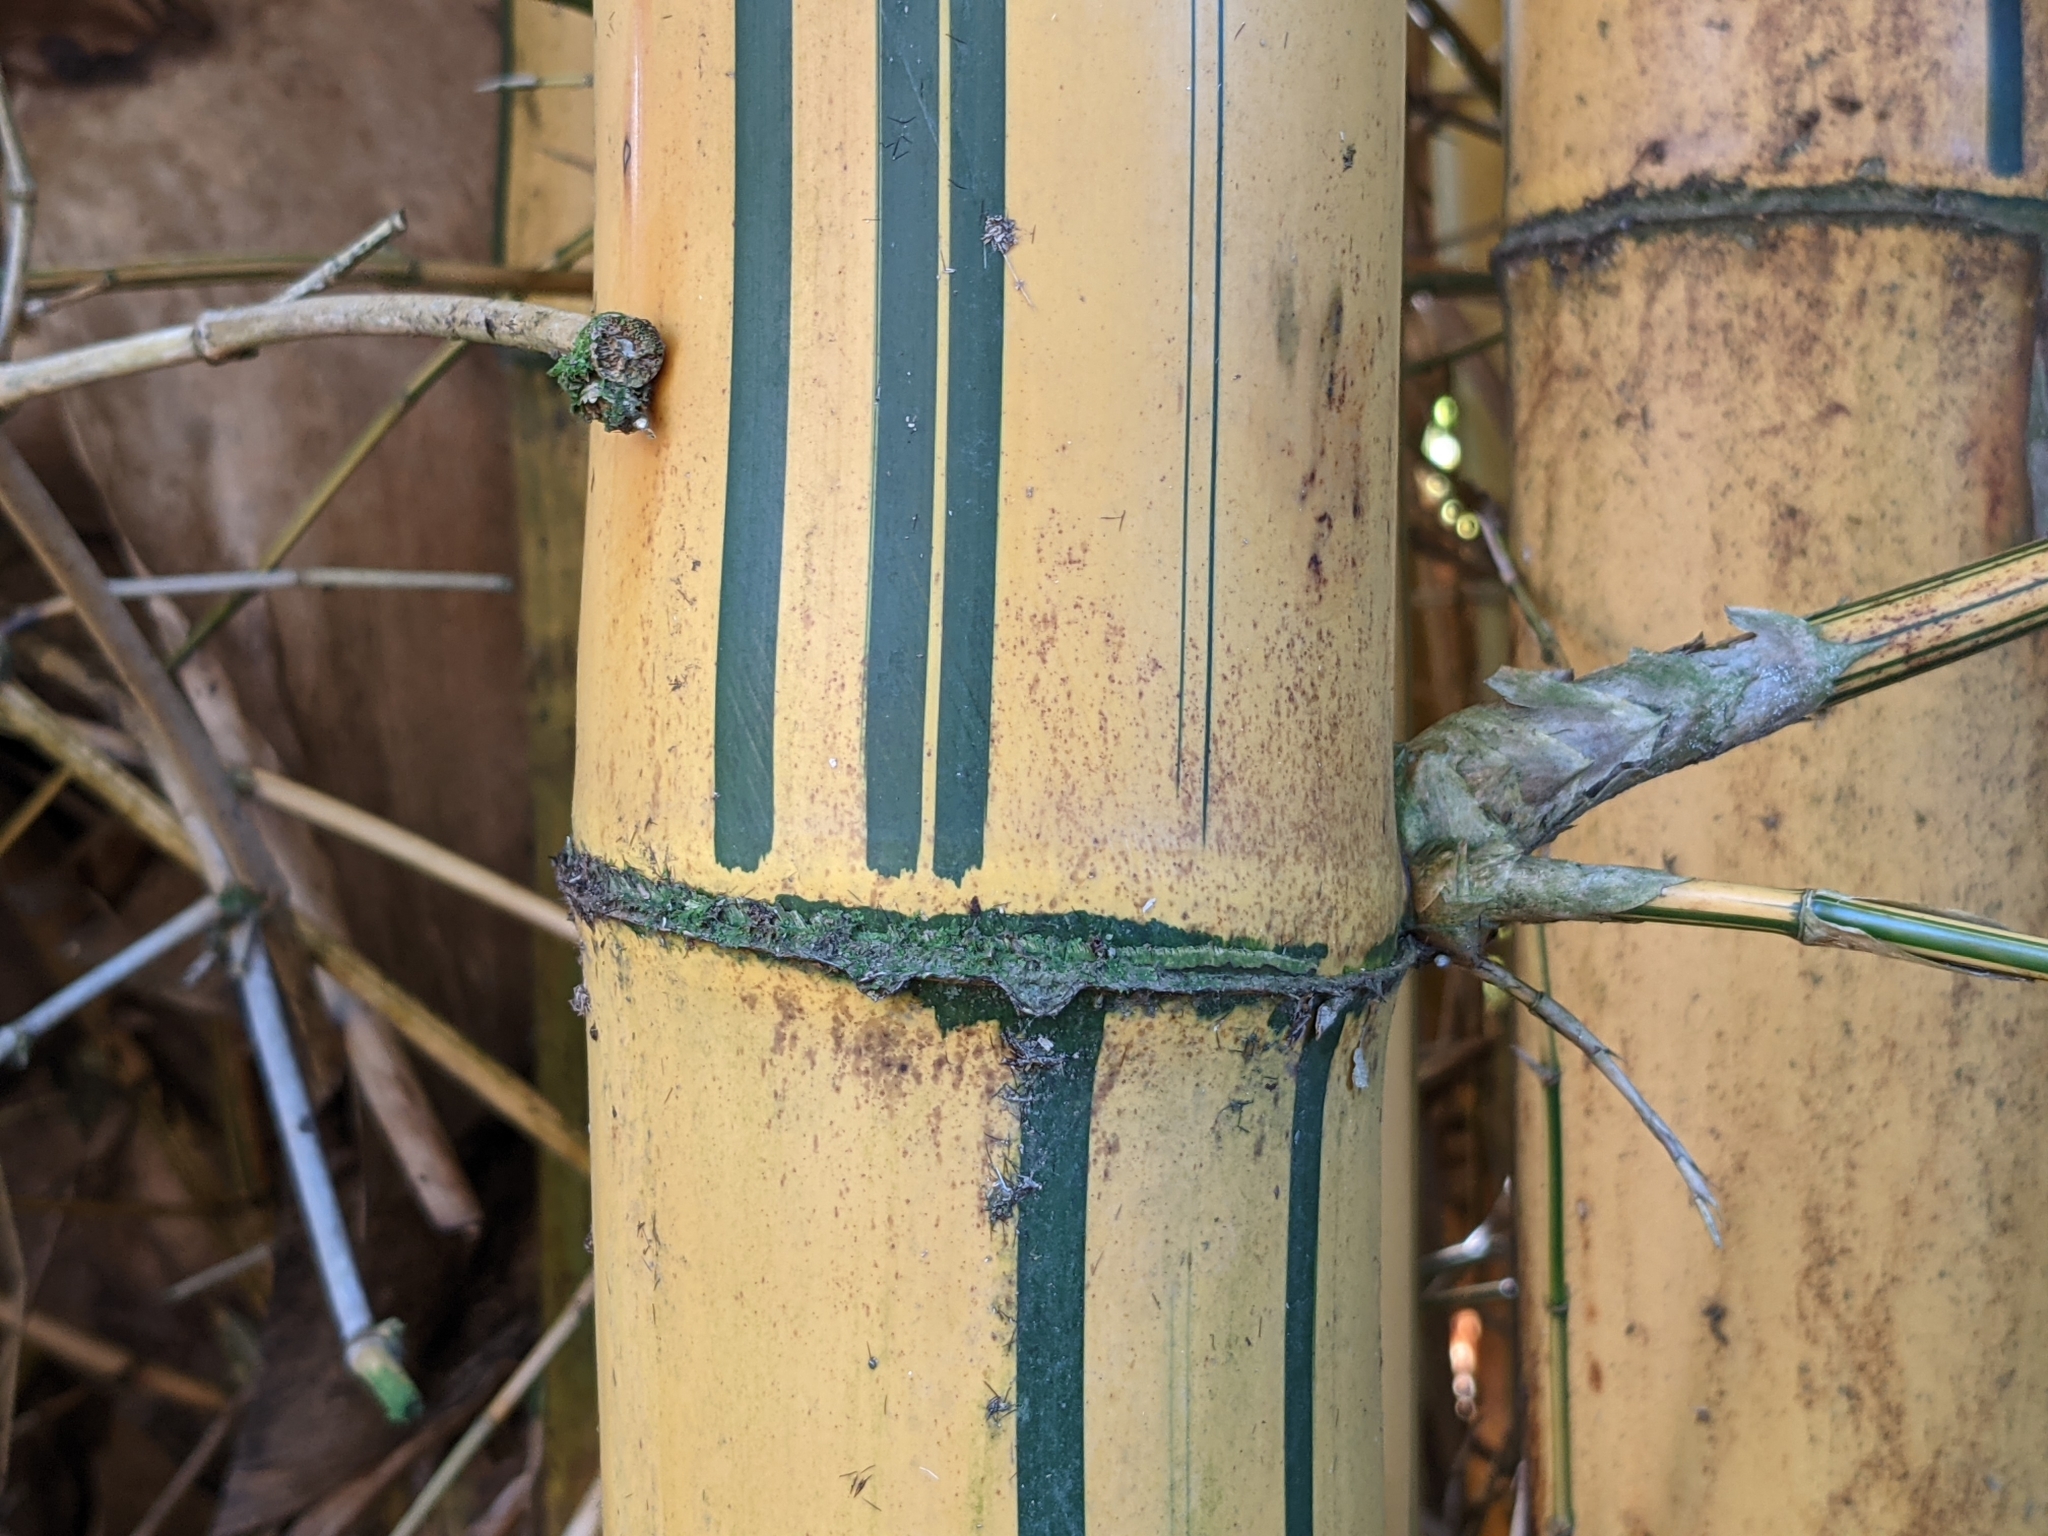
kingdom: Plantae
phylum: Tracheophyta
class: Liliopsida
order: Poales
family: Poaceae
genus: Bambusa
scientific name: Bambusa vulgaris
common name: Common bamboo
